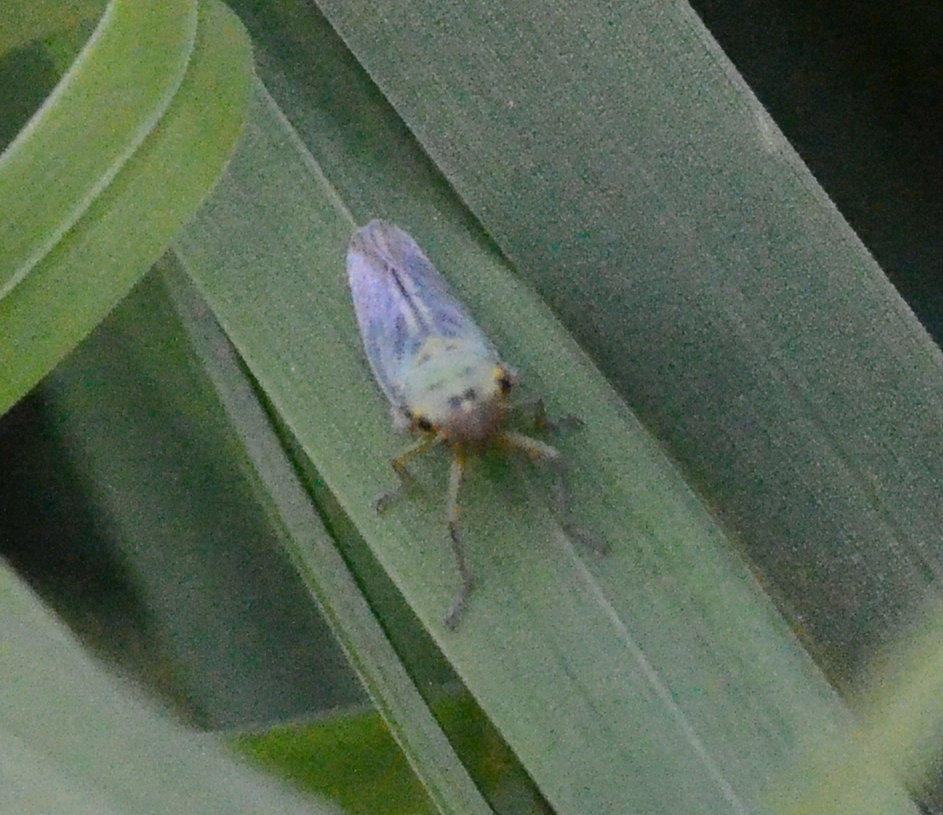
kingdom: Animalia
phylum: Arthropoda
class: Insecta
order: Hemiptera
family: Cicadellidae
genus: Cicadella
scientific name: Cicadella viridis
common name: Leafhopper
